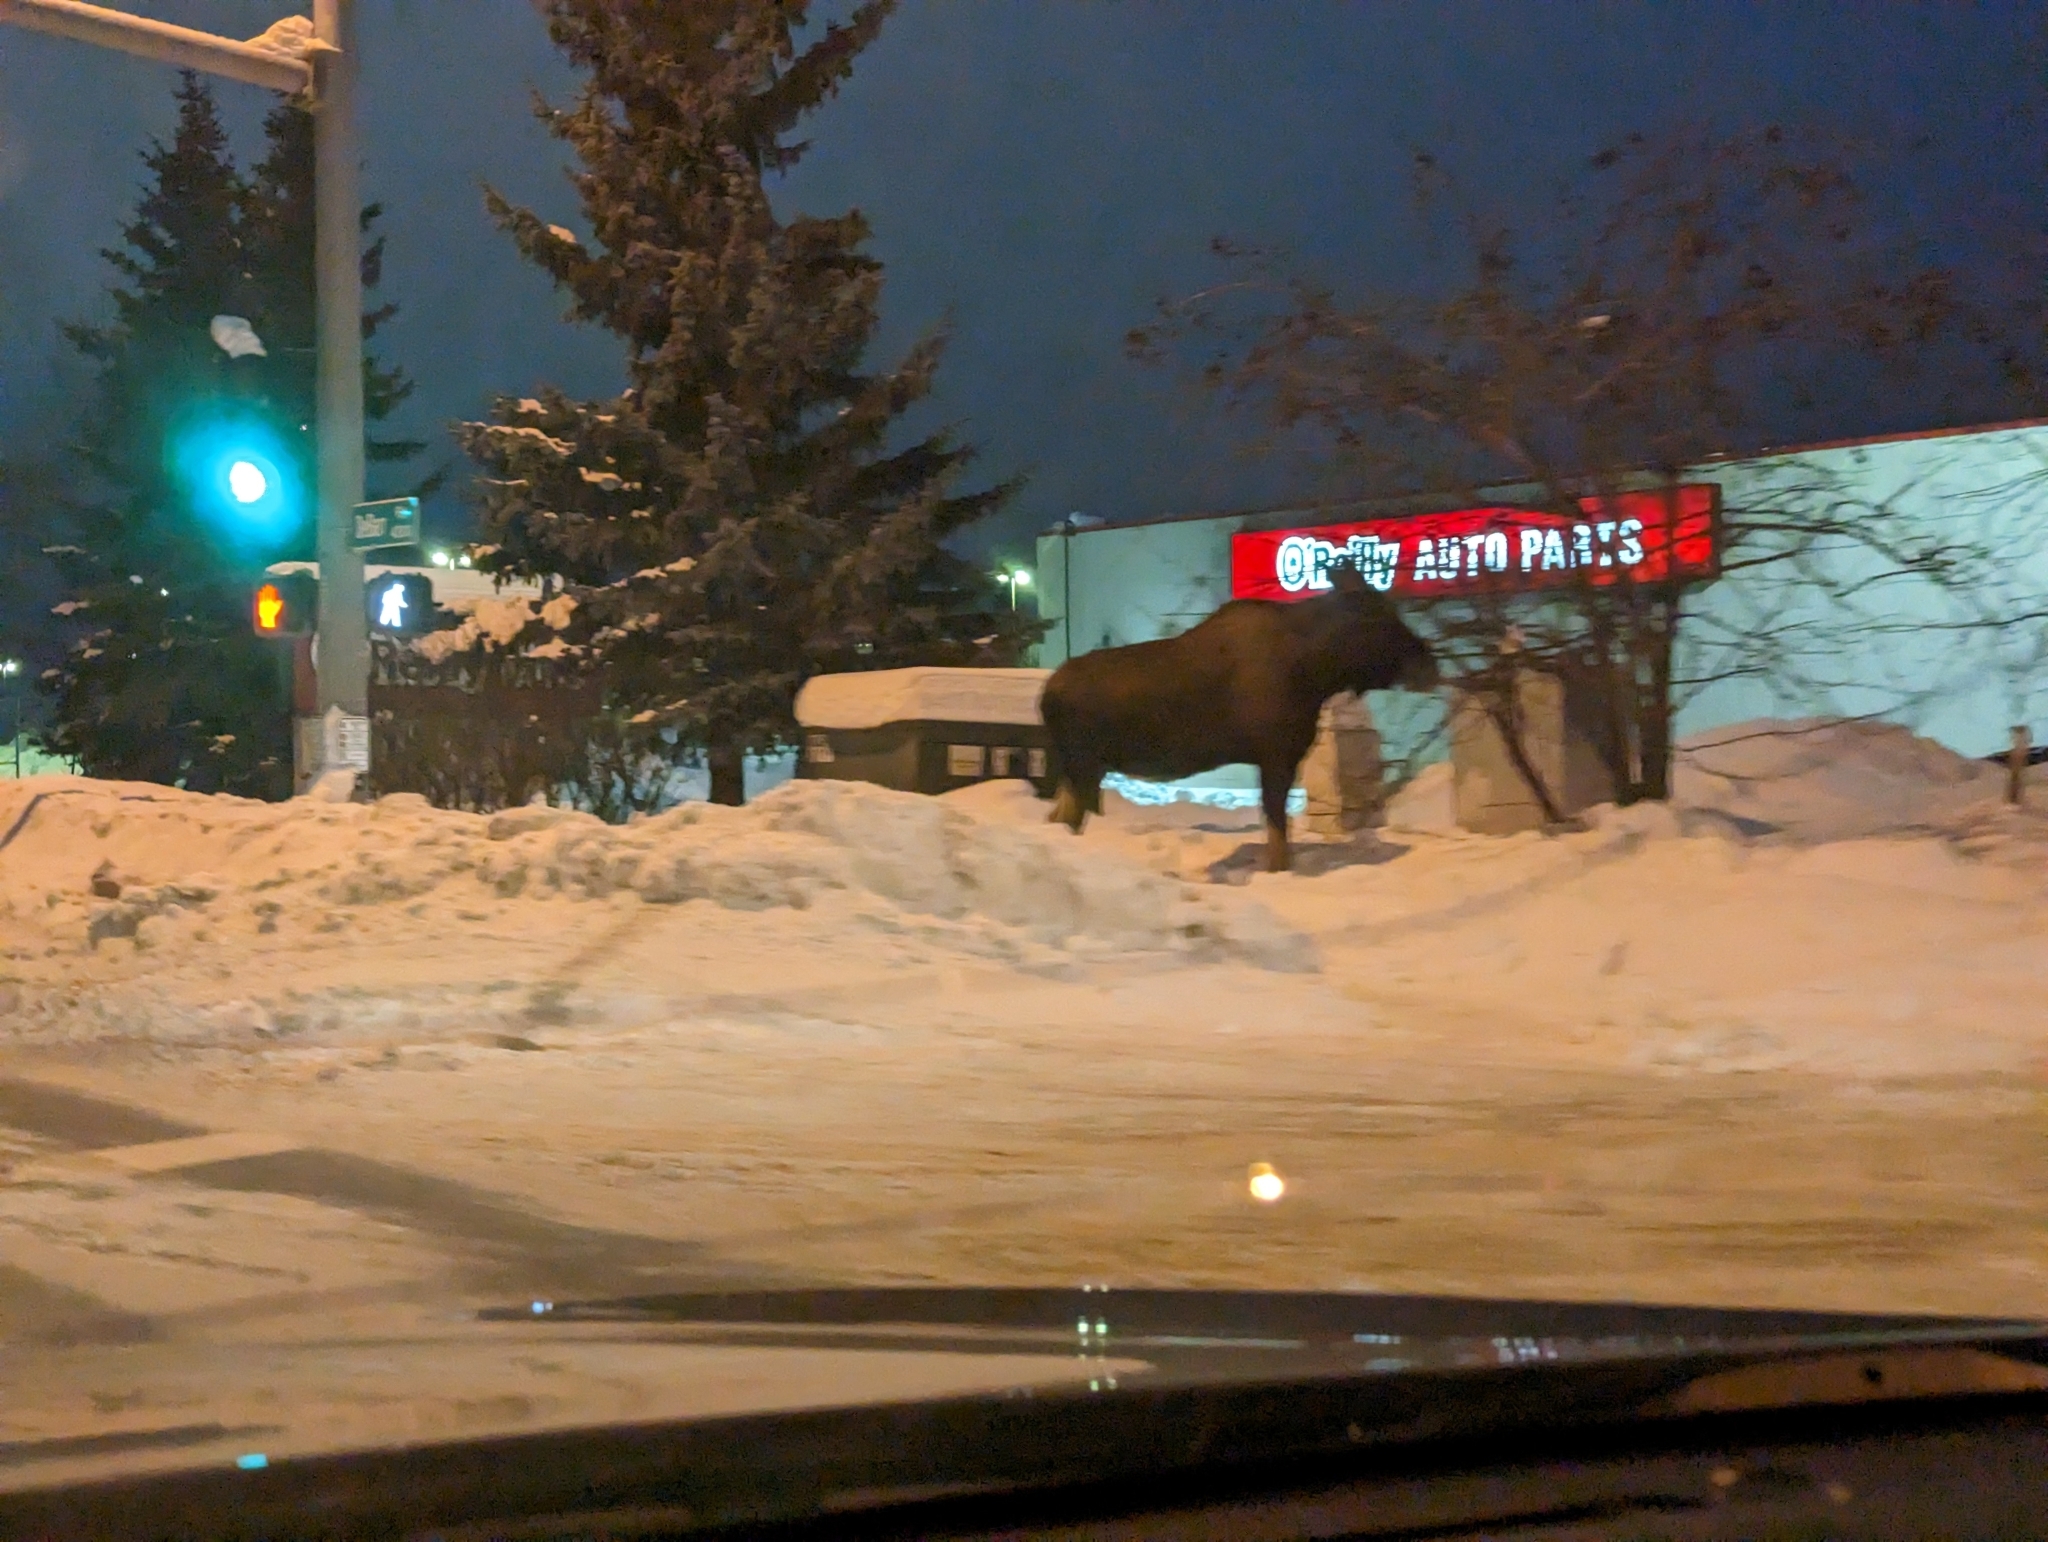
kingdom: Animalia
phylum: Chordata
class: Mammalia
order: Artiodactyla
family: Cervidae
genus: Alces
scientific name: Alces americanus
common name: Moose
